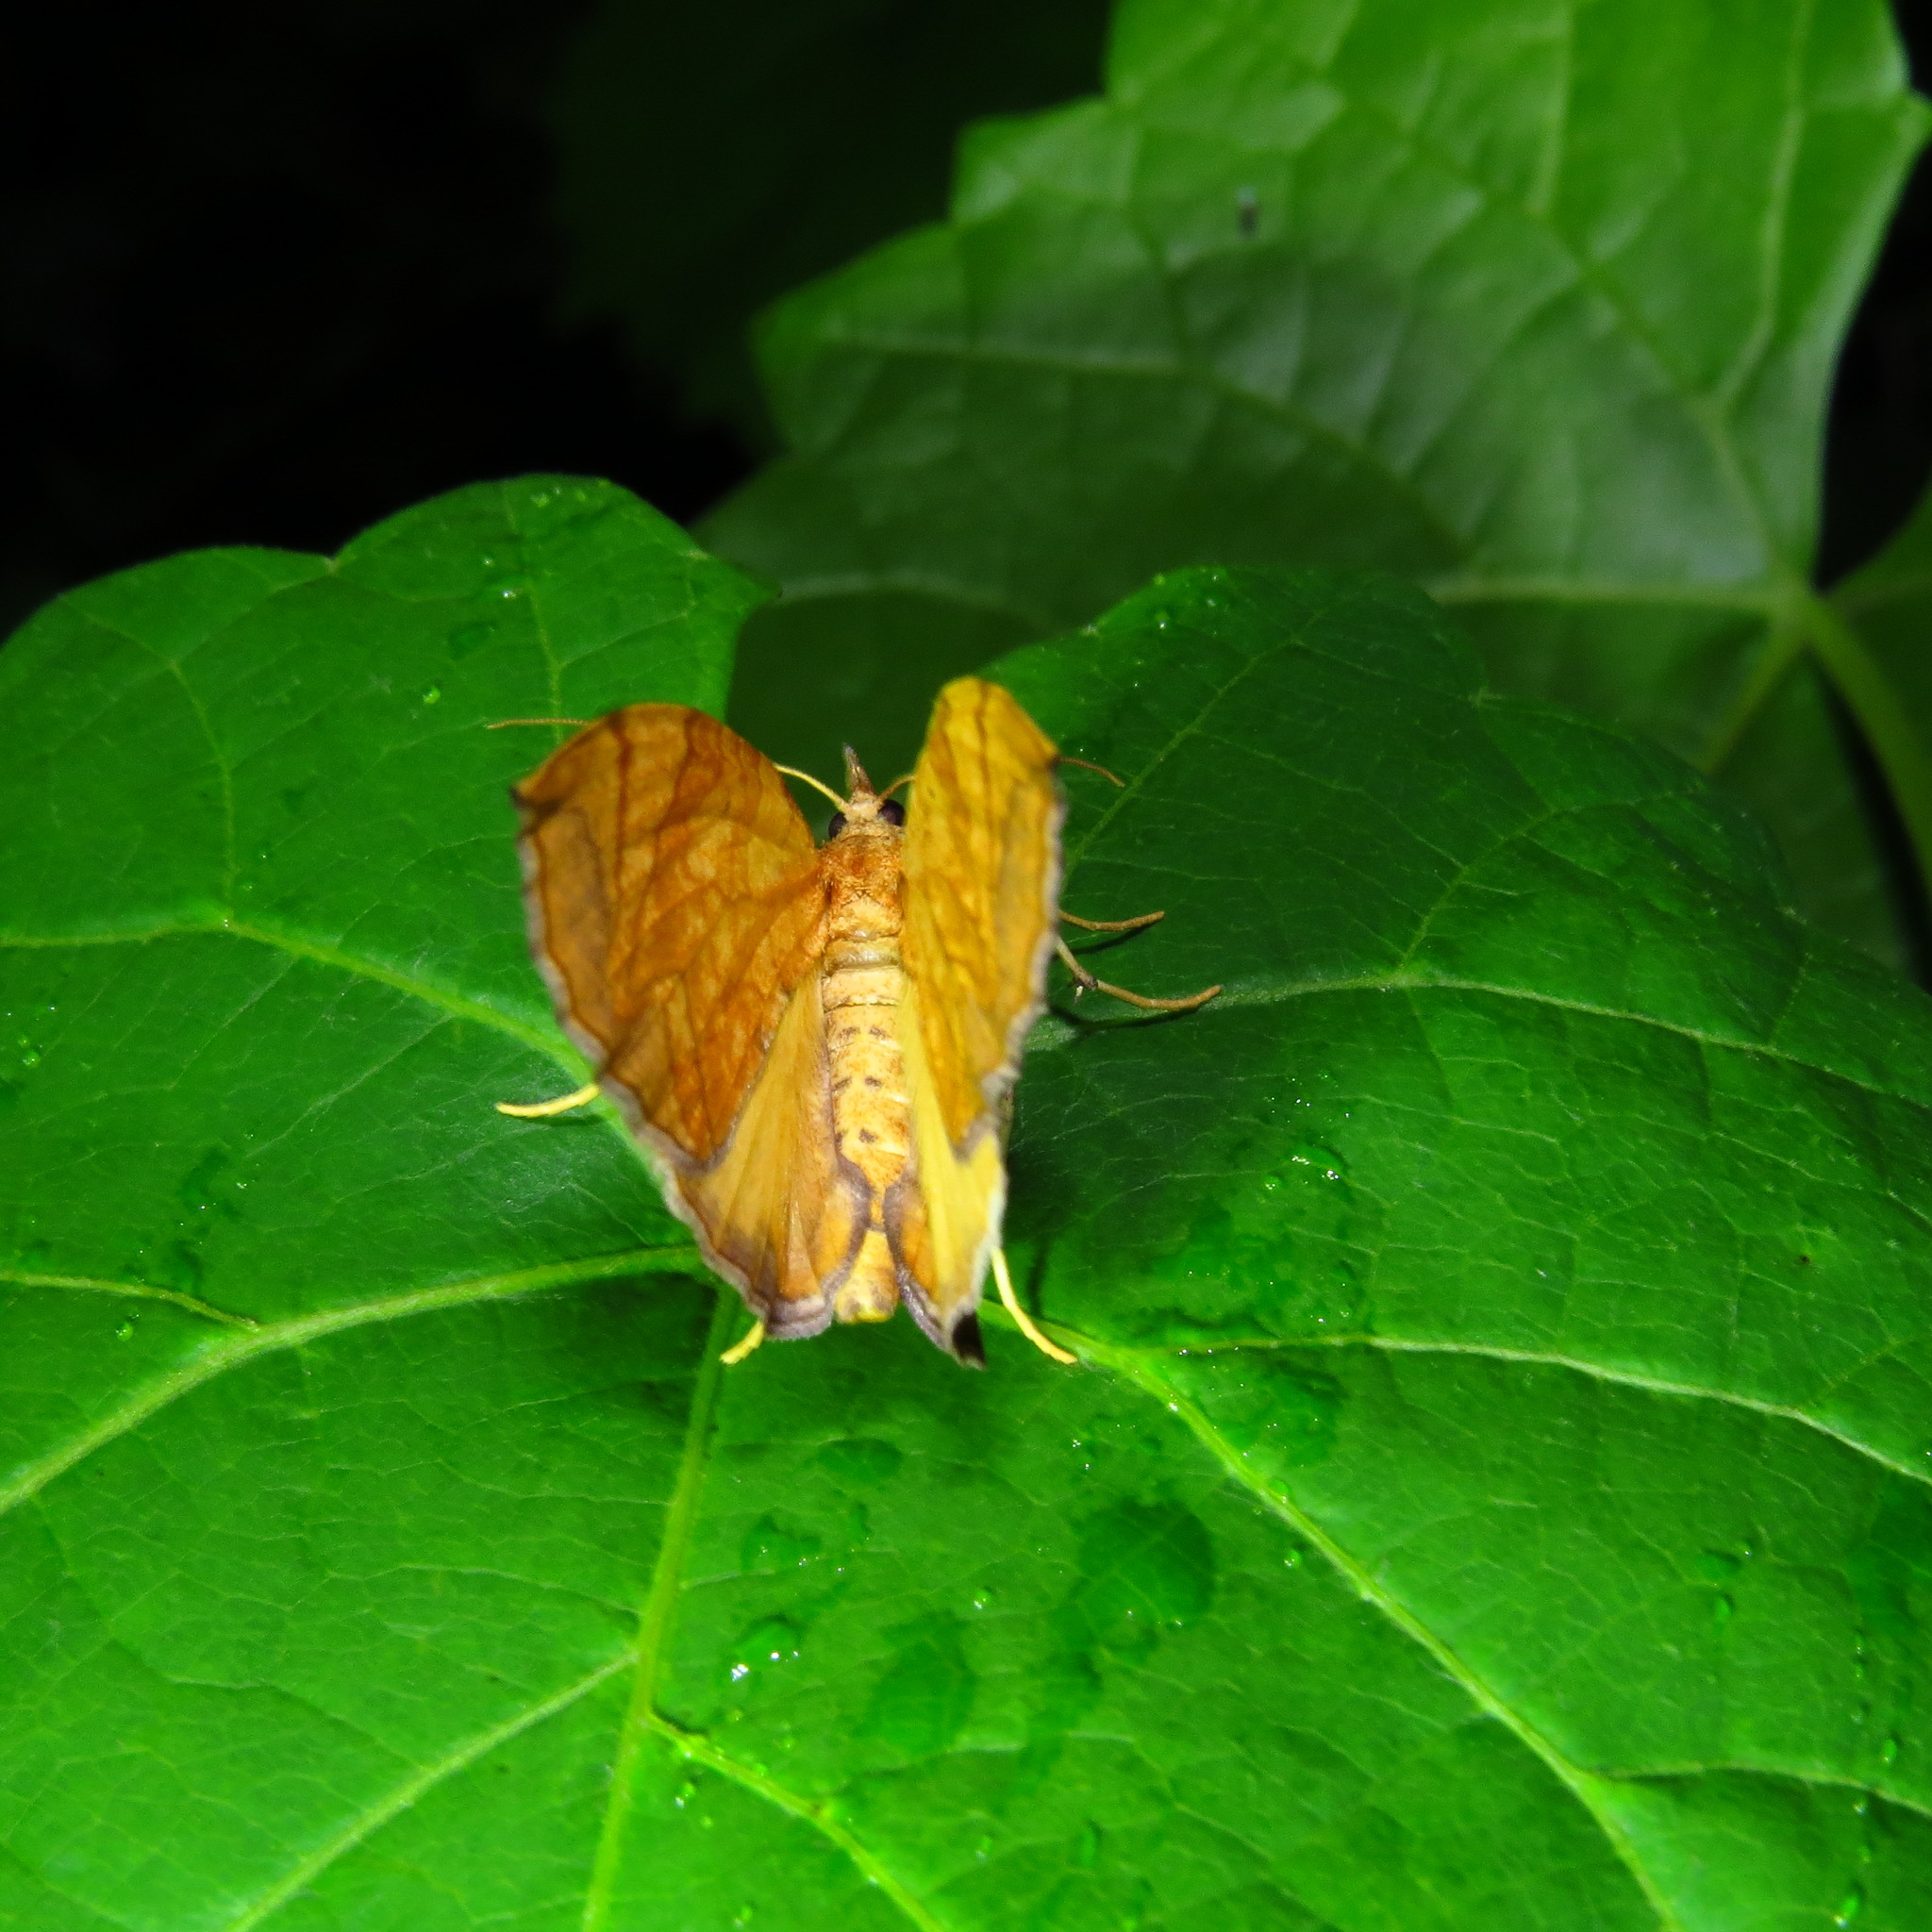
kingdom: Animalia
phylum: Arthropoda
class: Insecta
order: Lepidoptera
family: Geometridae
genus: Eulithis
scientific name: Eulithis
